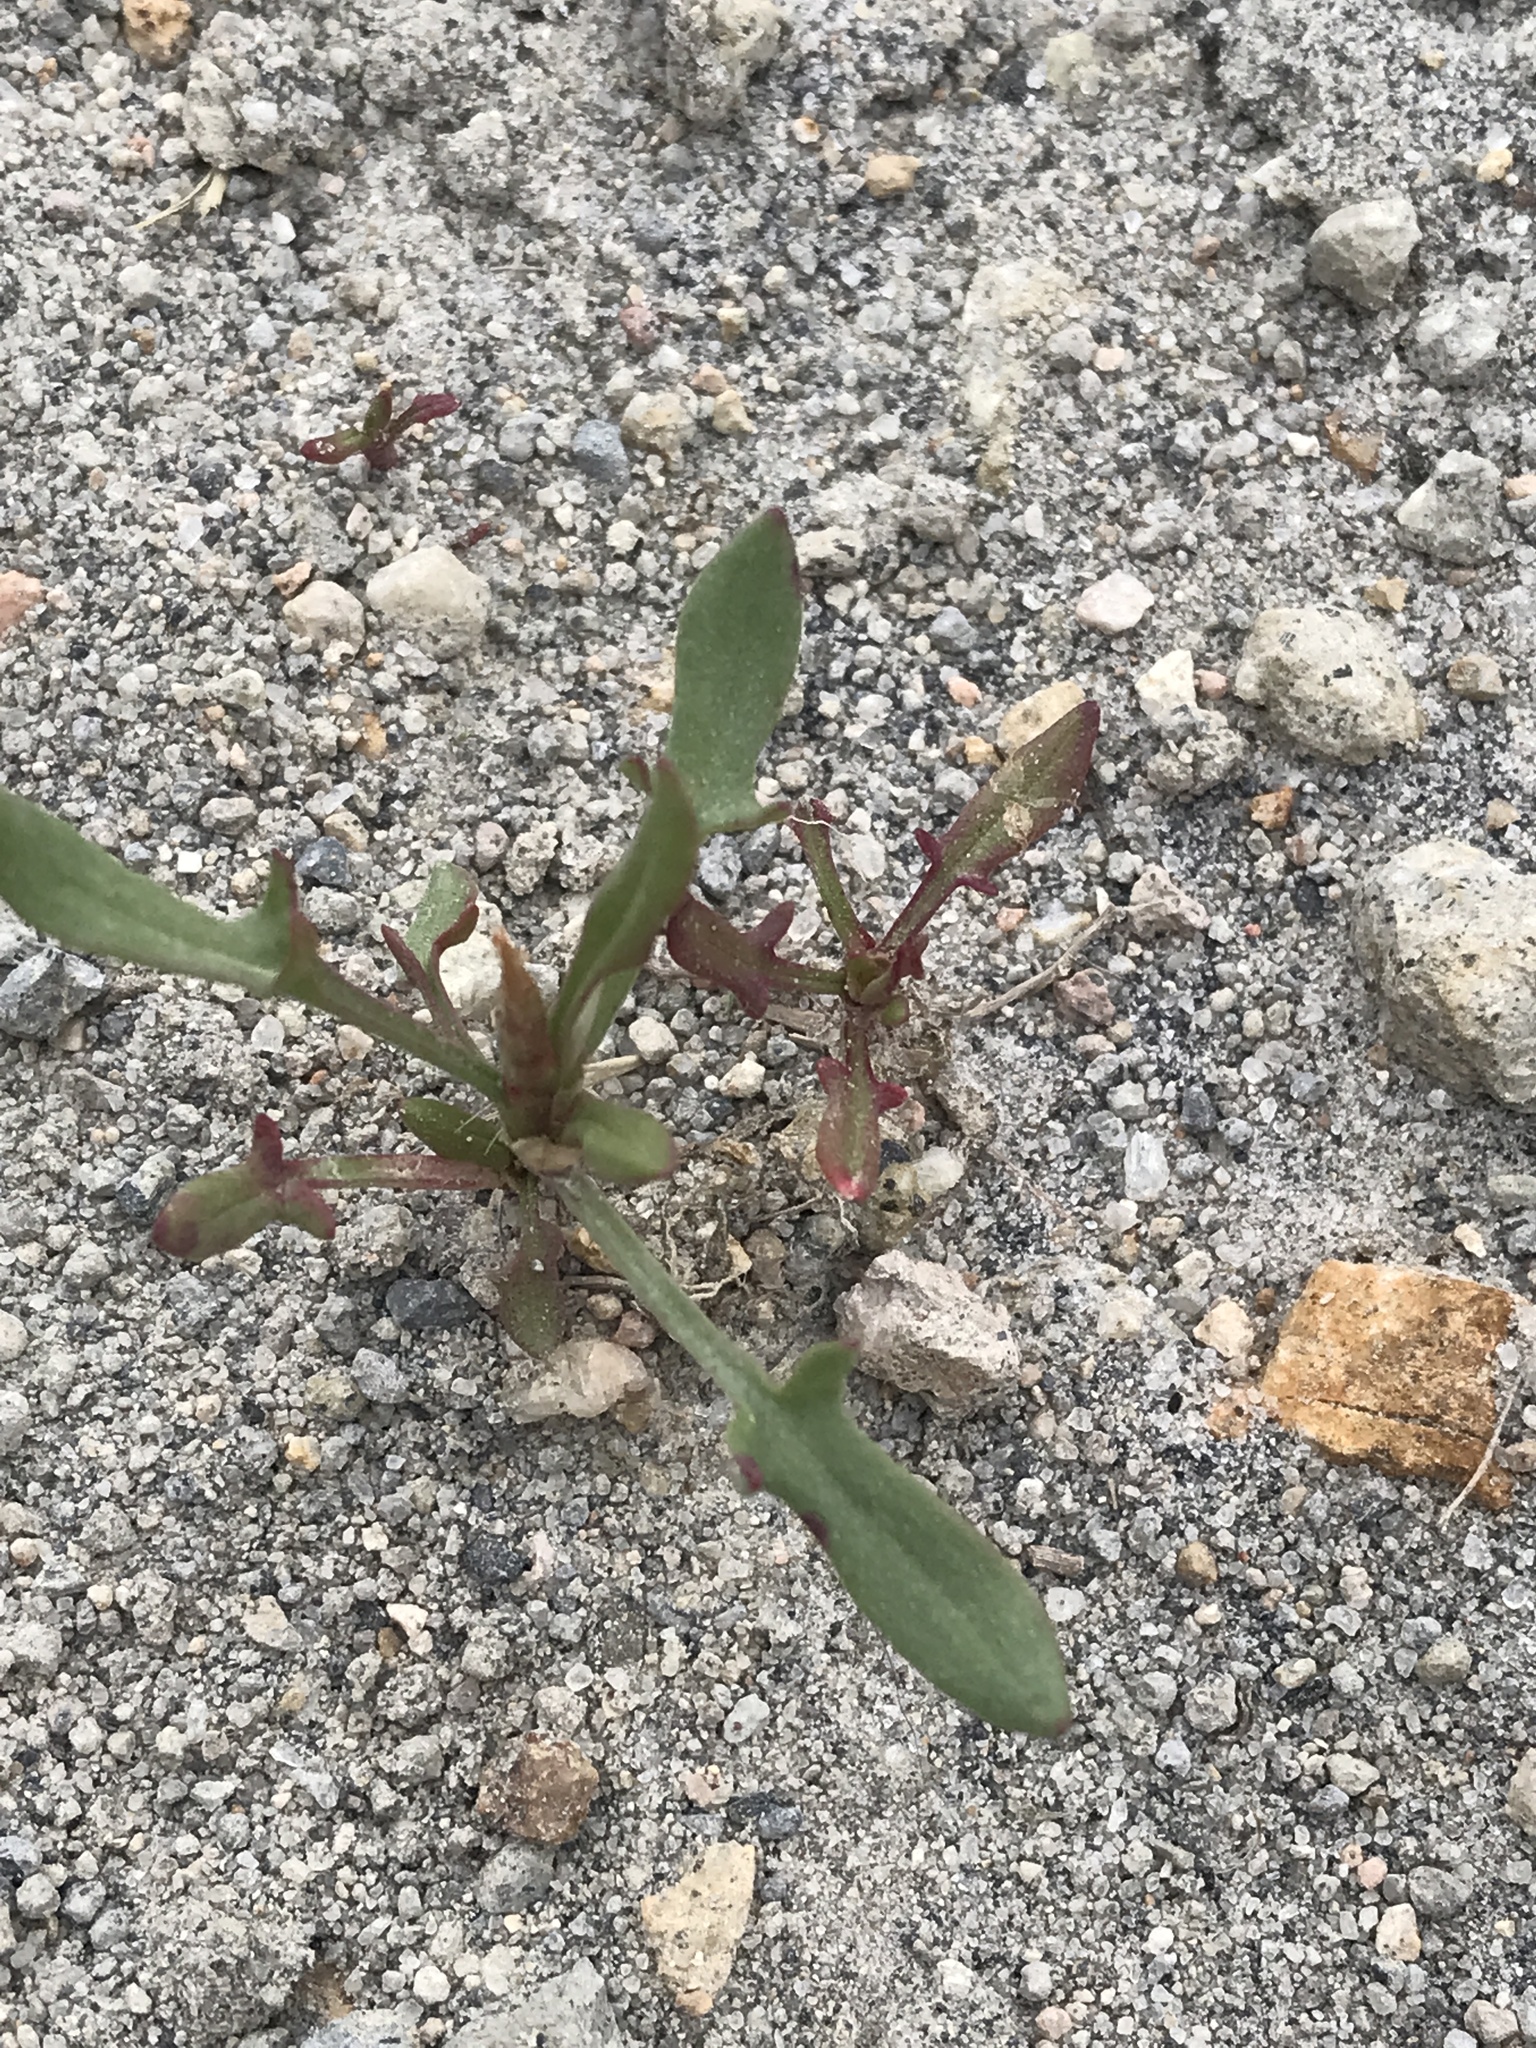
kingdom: Plantae
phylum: Tracheophyta
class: Magnoliopsida
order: Caryophyllales
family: Polygonaceae
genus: Rumex
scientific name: Rumex acetosella
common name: Common sheep sorrel
